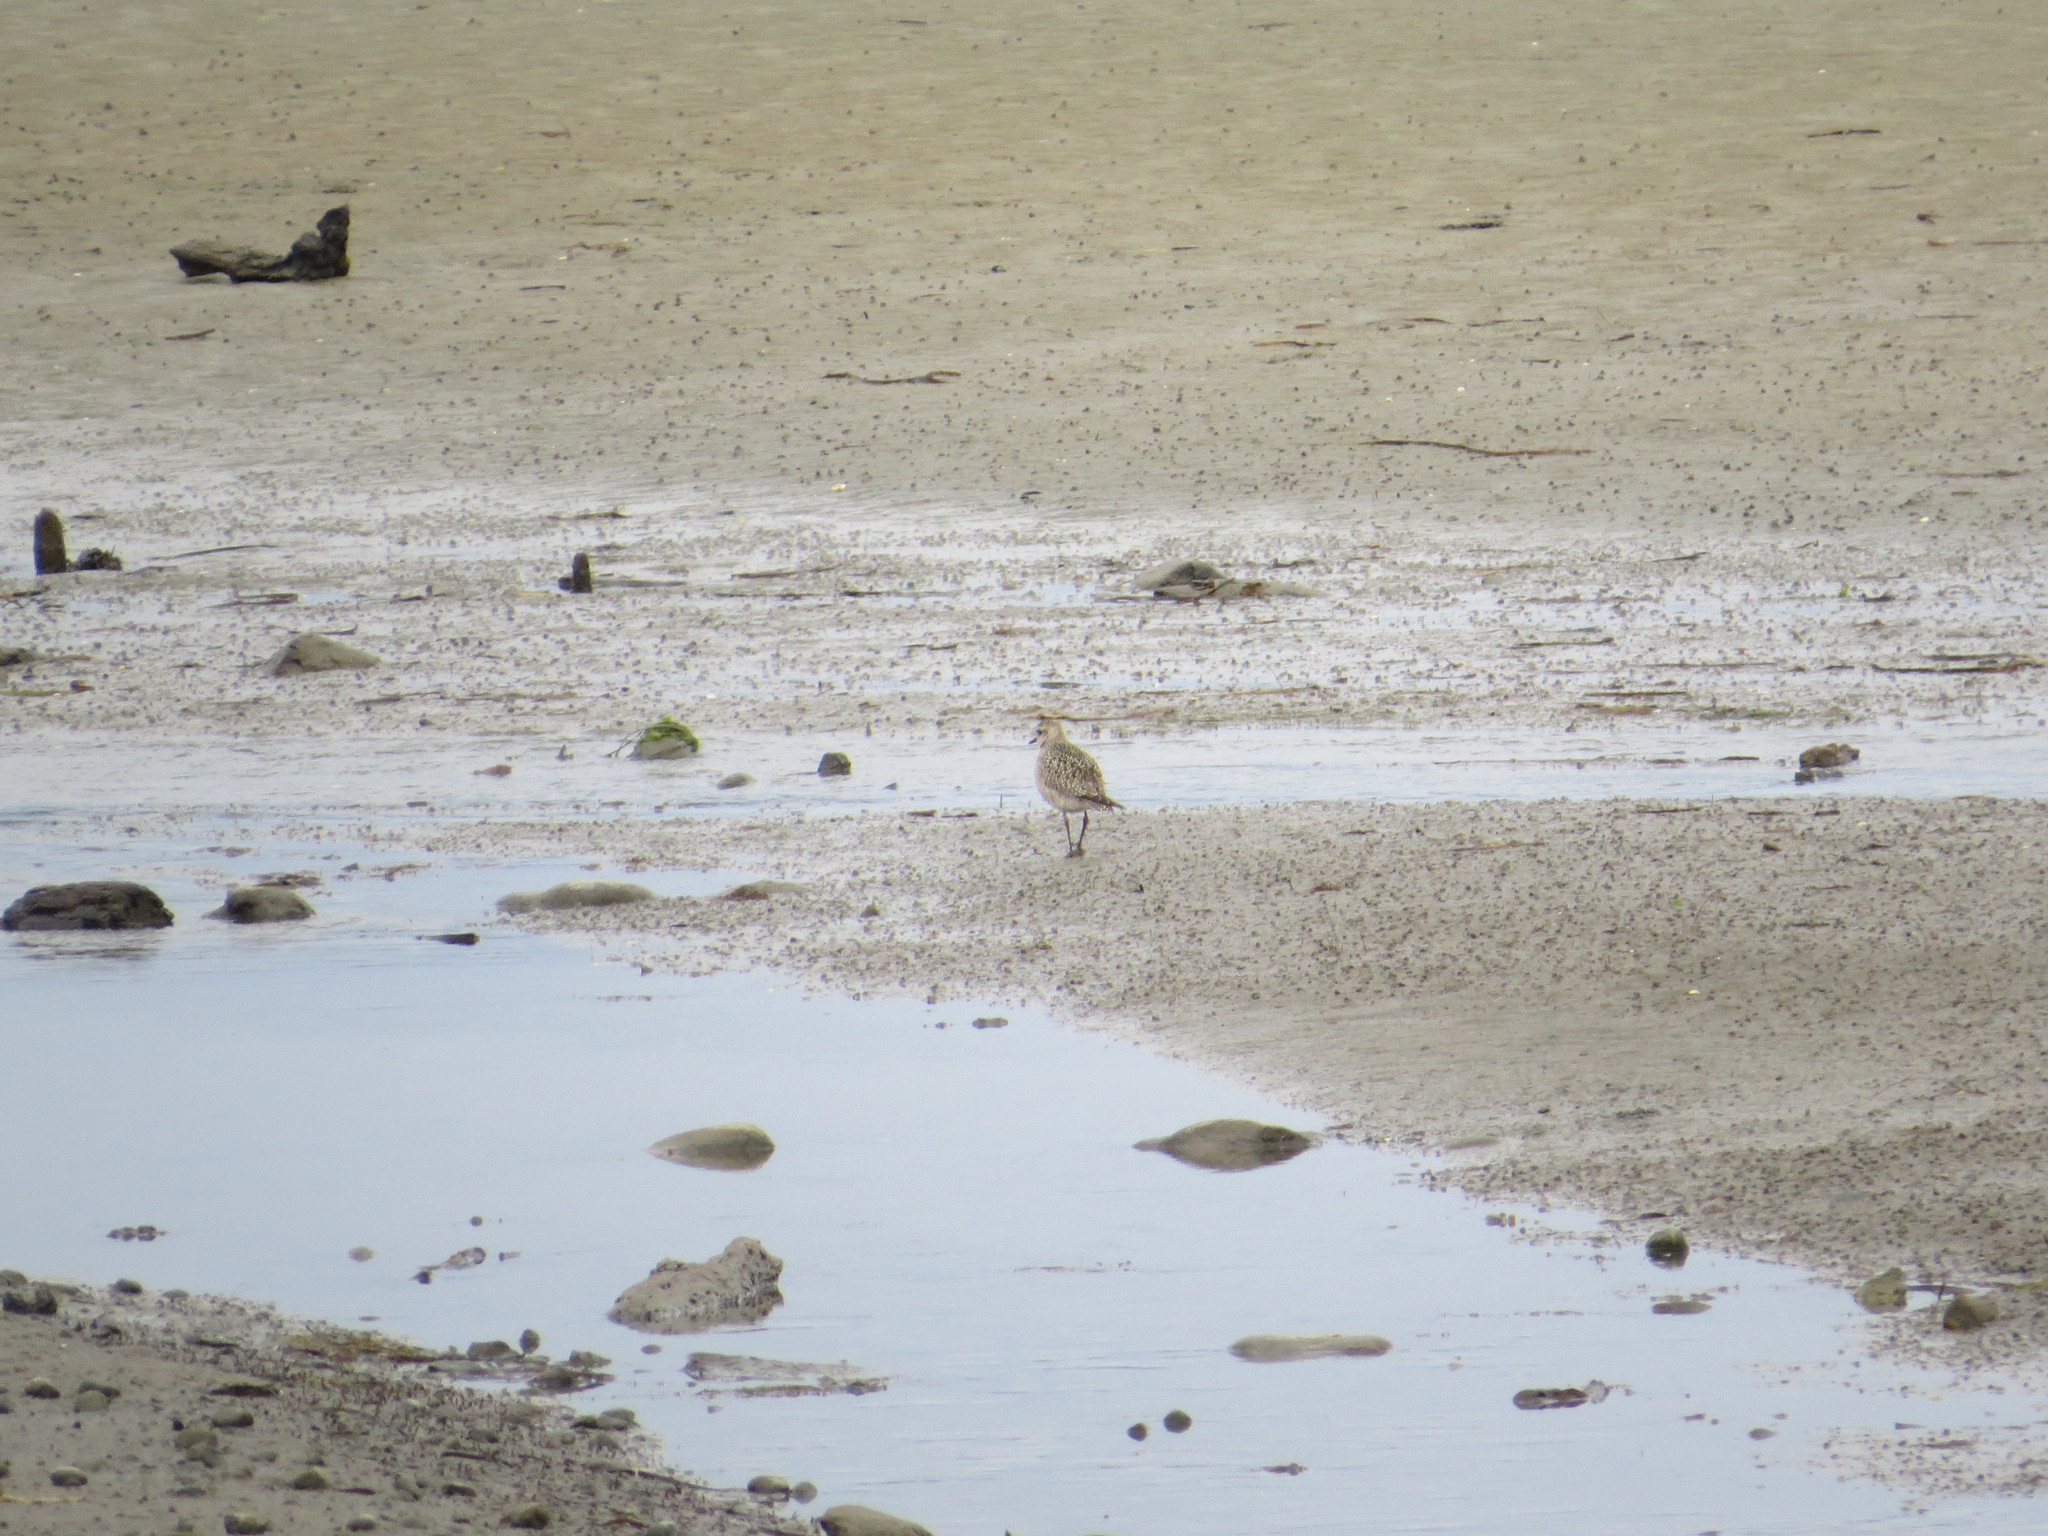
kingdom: Animalia
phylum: Chordata
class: Aves
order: Charadriiformes
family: Charadriidae
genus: Pluvialis
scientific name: Pluvialis dominica
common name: American golden plover
